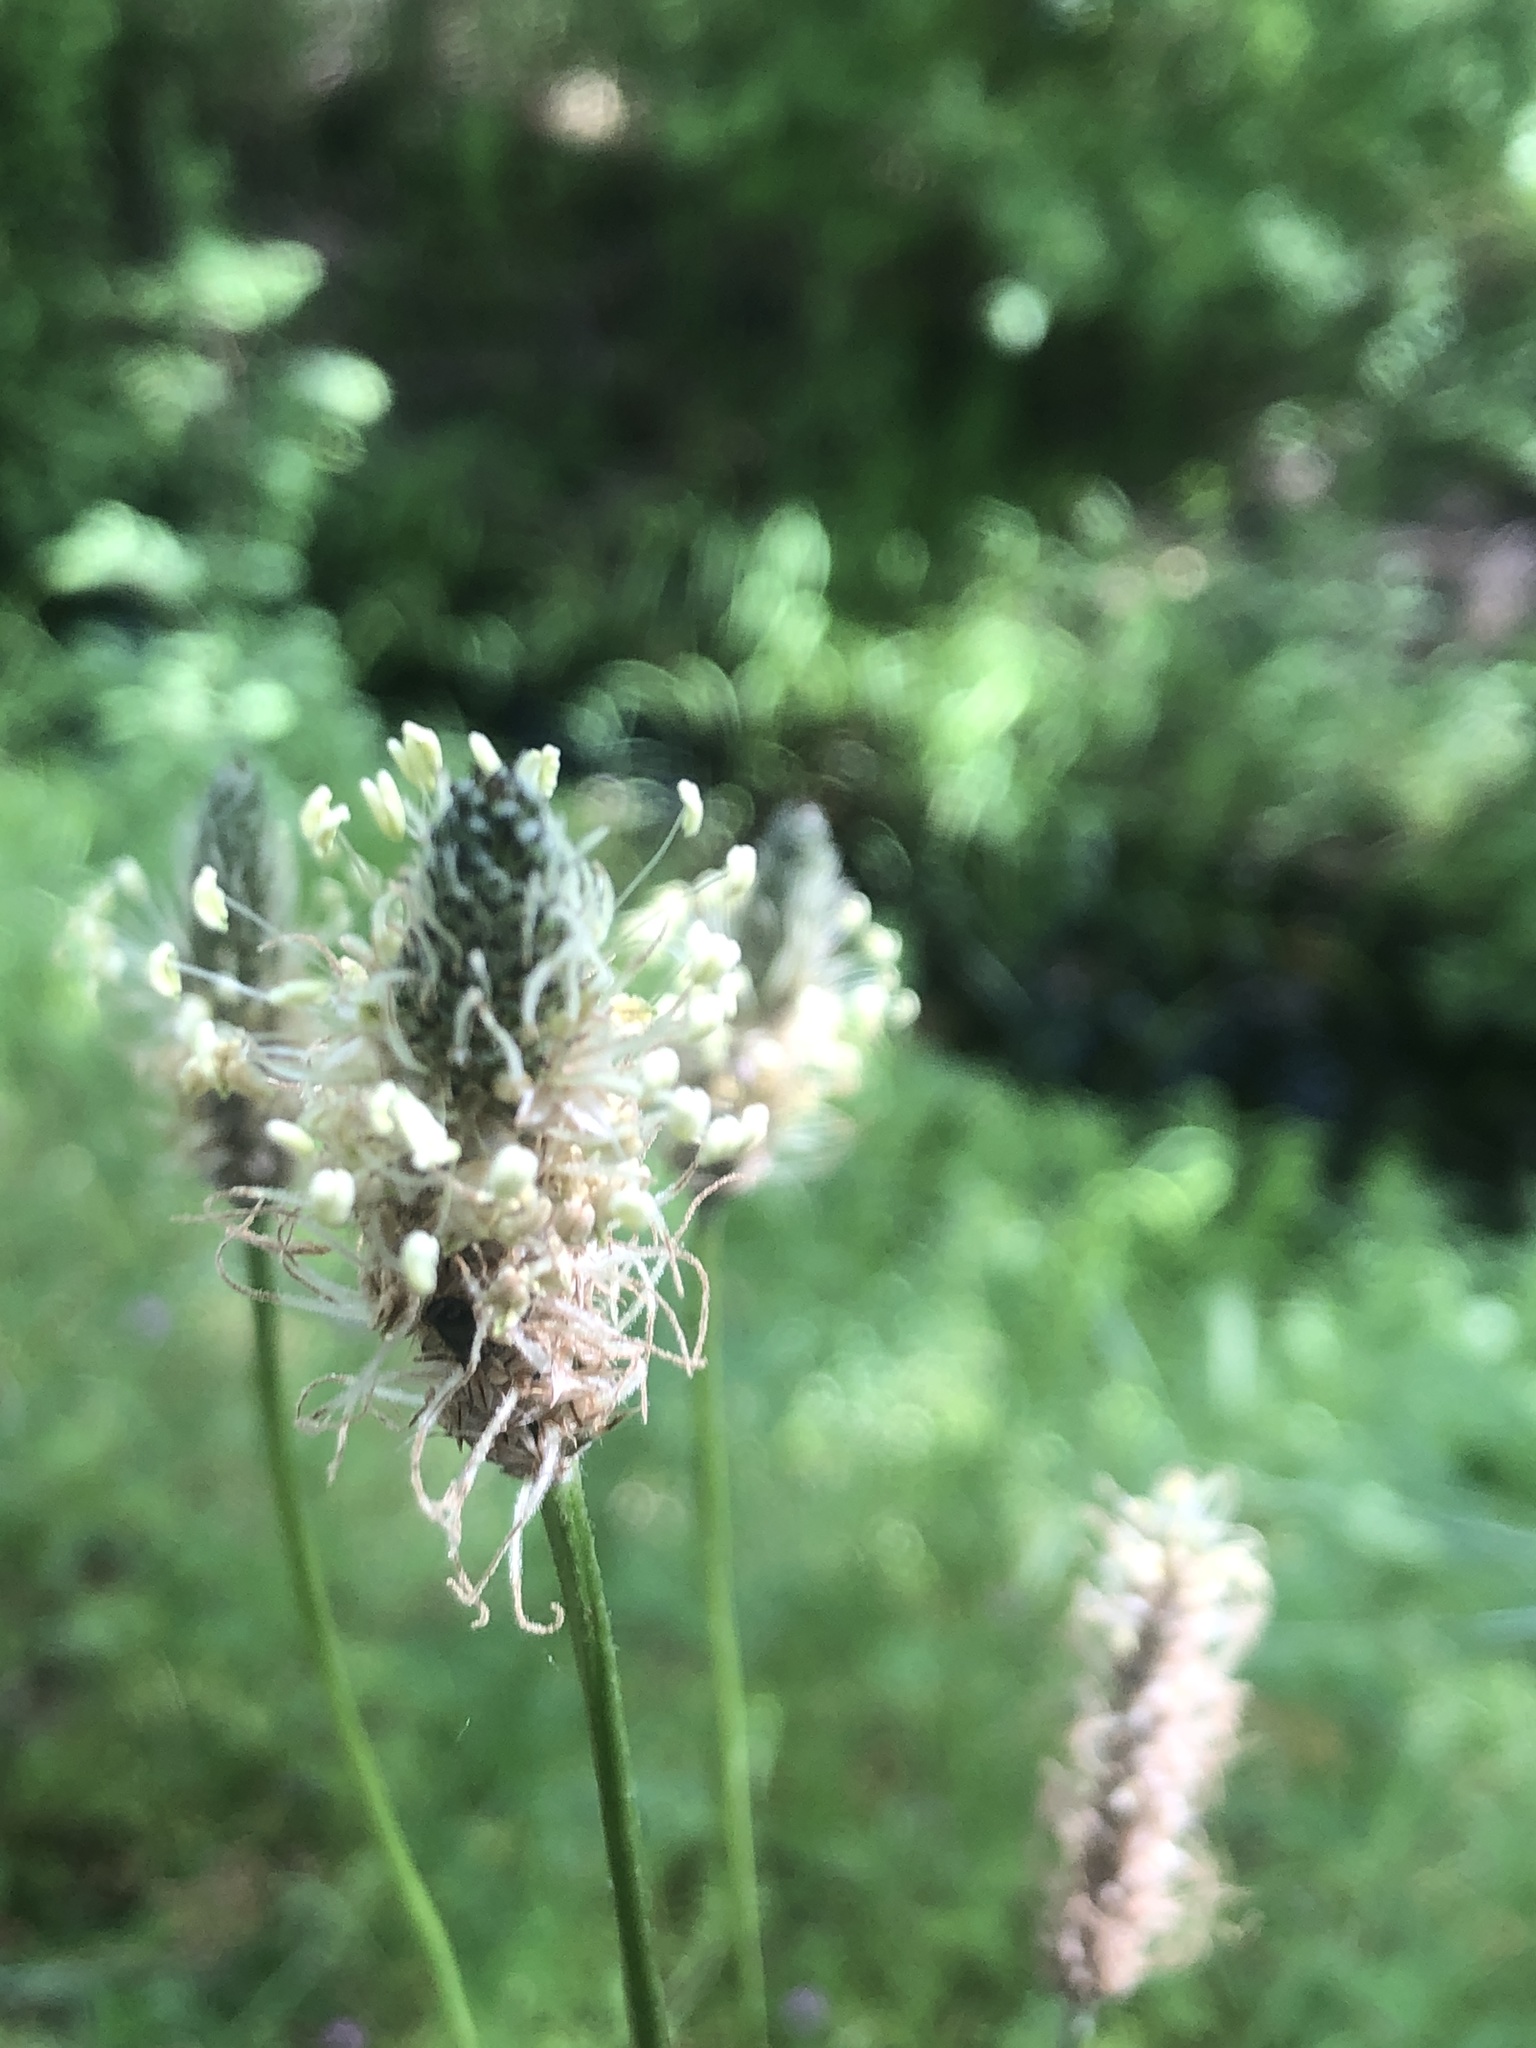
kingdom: Plantae
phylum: Tracheophyta
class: Magnoliopsida
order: Lamiales
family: Plantaginaceae
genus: Plantago
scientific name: Plantago lanceolata
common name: Ribwort plantain
